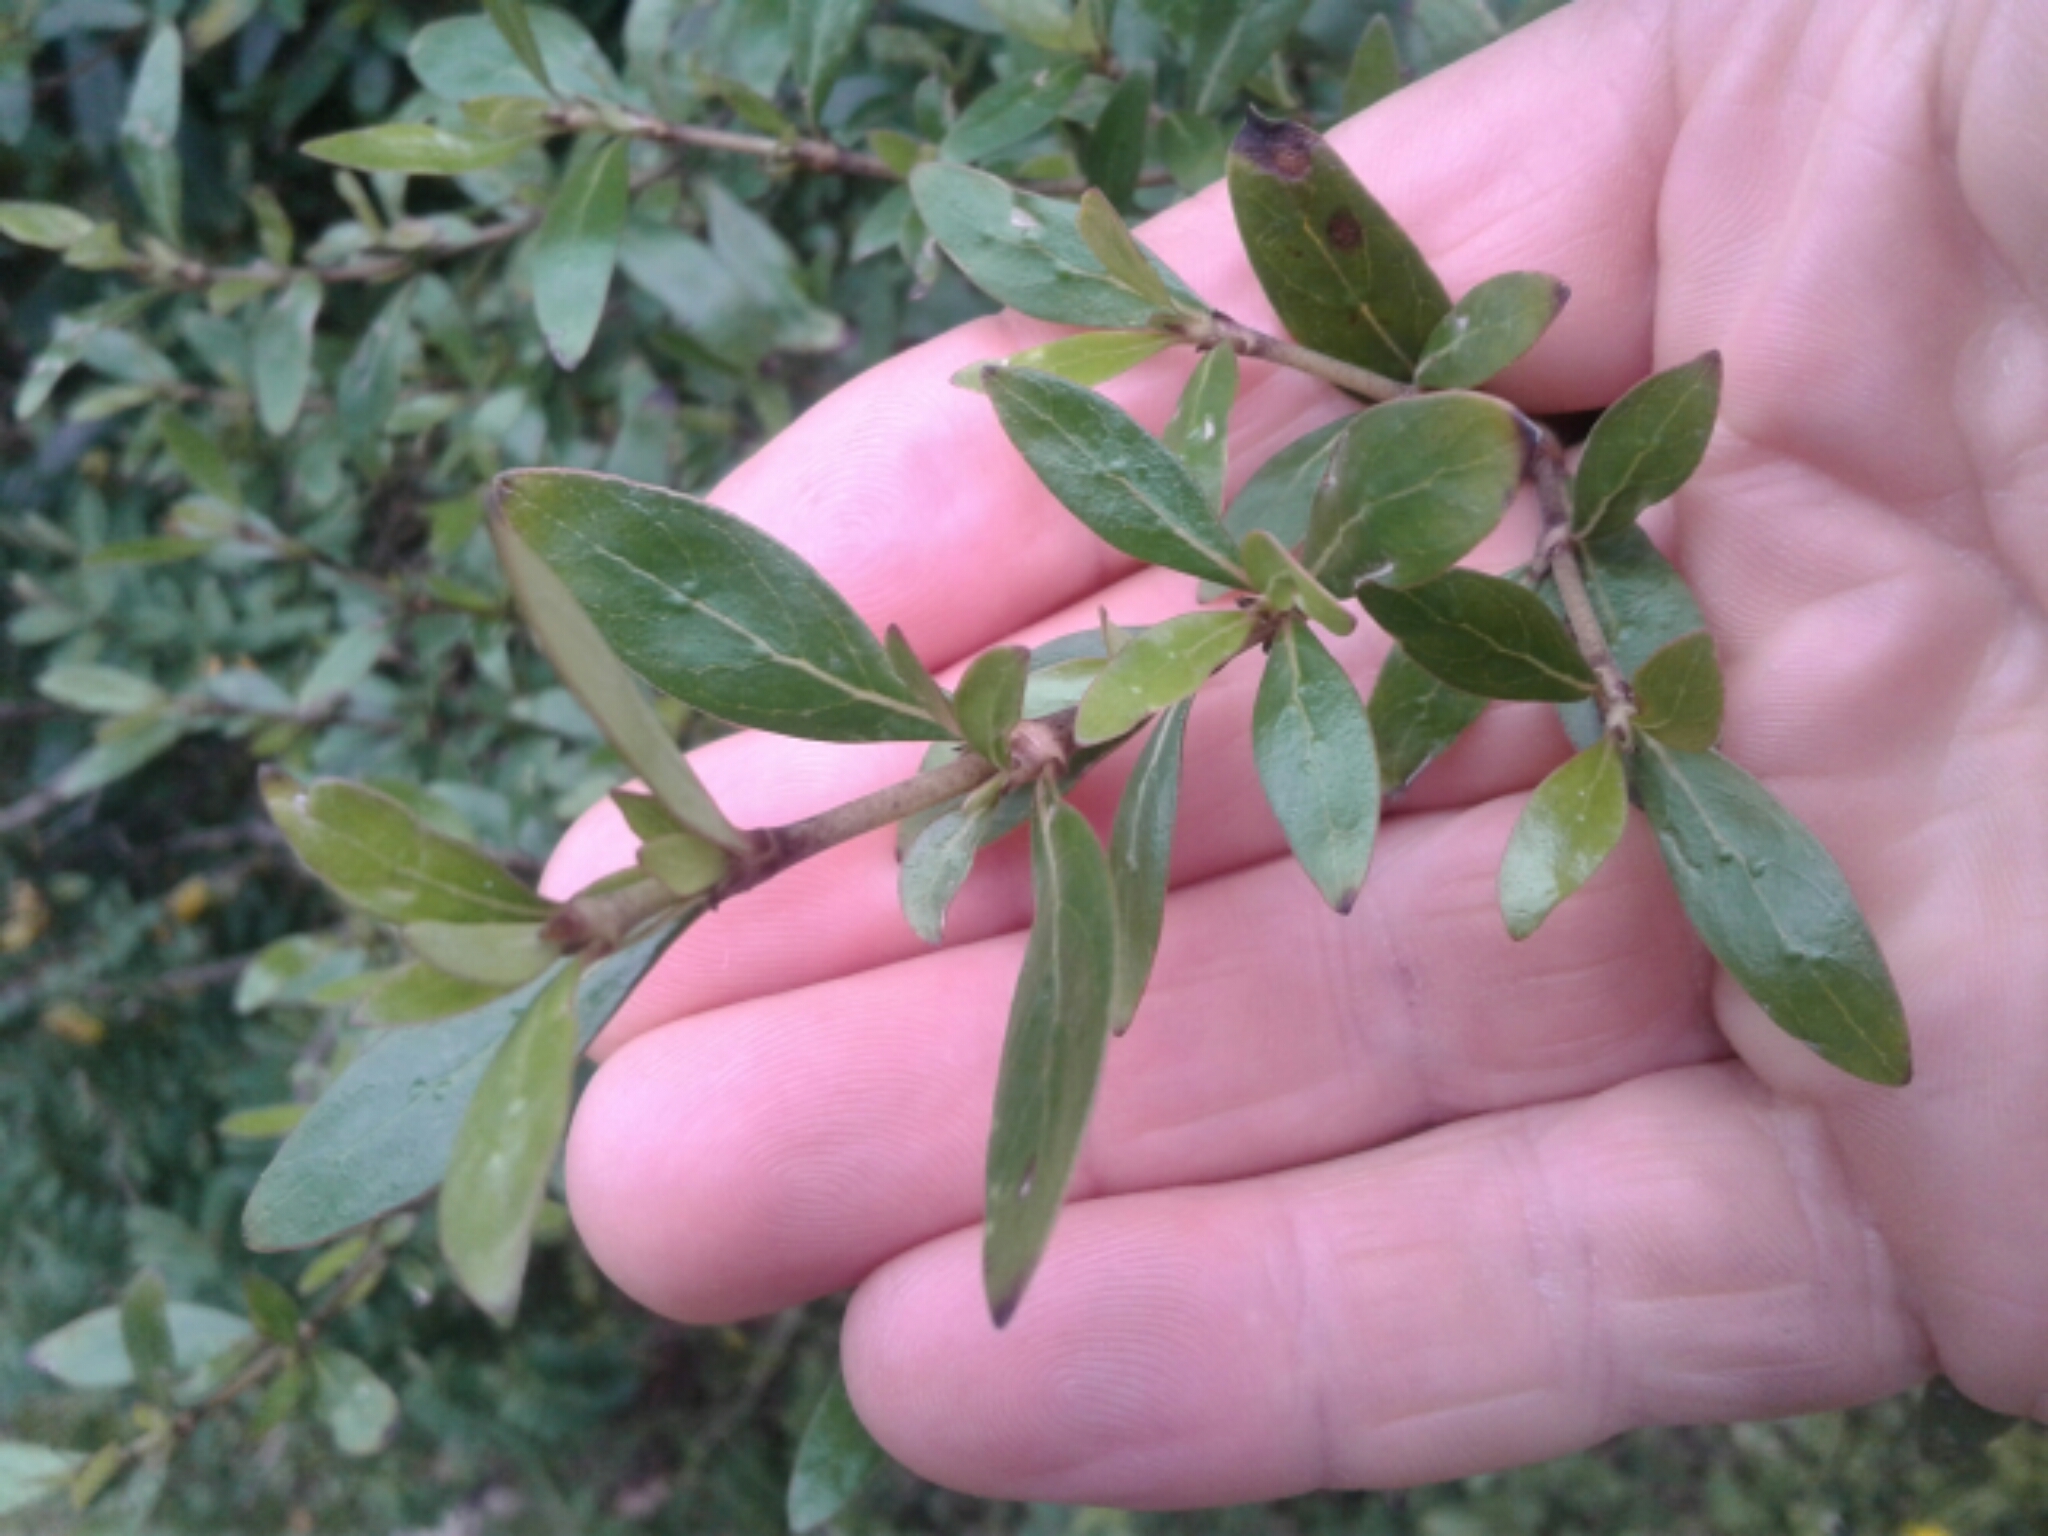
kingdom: Plantae
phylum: Tracheophyta
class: Magnoliopsida
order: Gentianales
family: Rubiaceae
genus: Coprosma
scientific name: Coprosma cunninghamii
